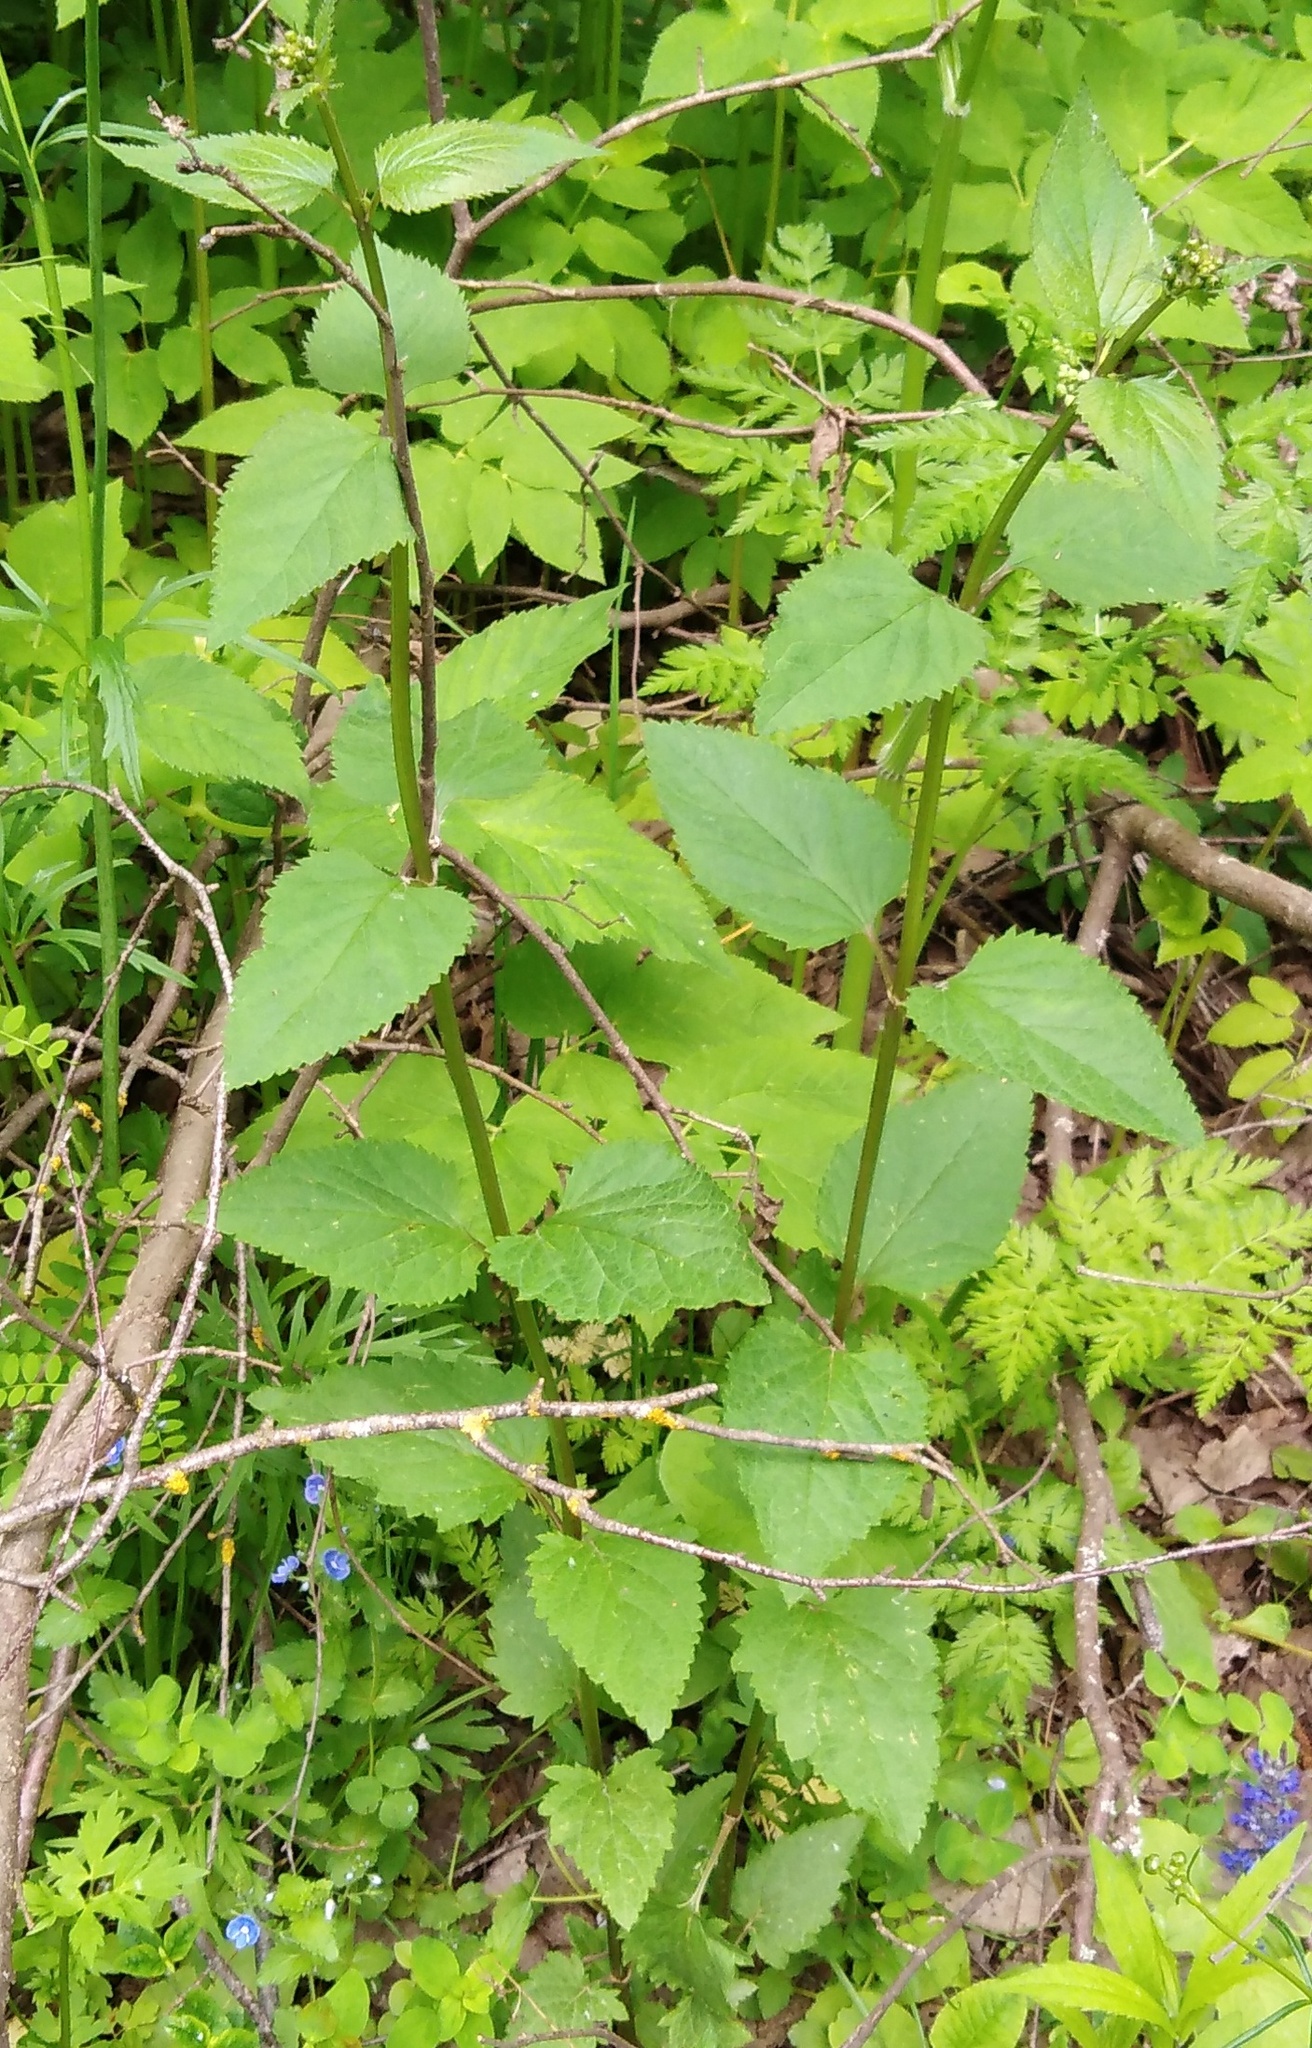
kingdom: Plantae
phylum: Tracheophyta
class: Magnoliopsida
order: Lamiales
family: Scrophulariaceae
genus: Scrophularia
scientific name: Scrophularia nodosa
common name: Common figwort
